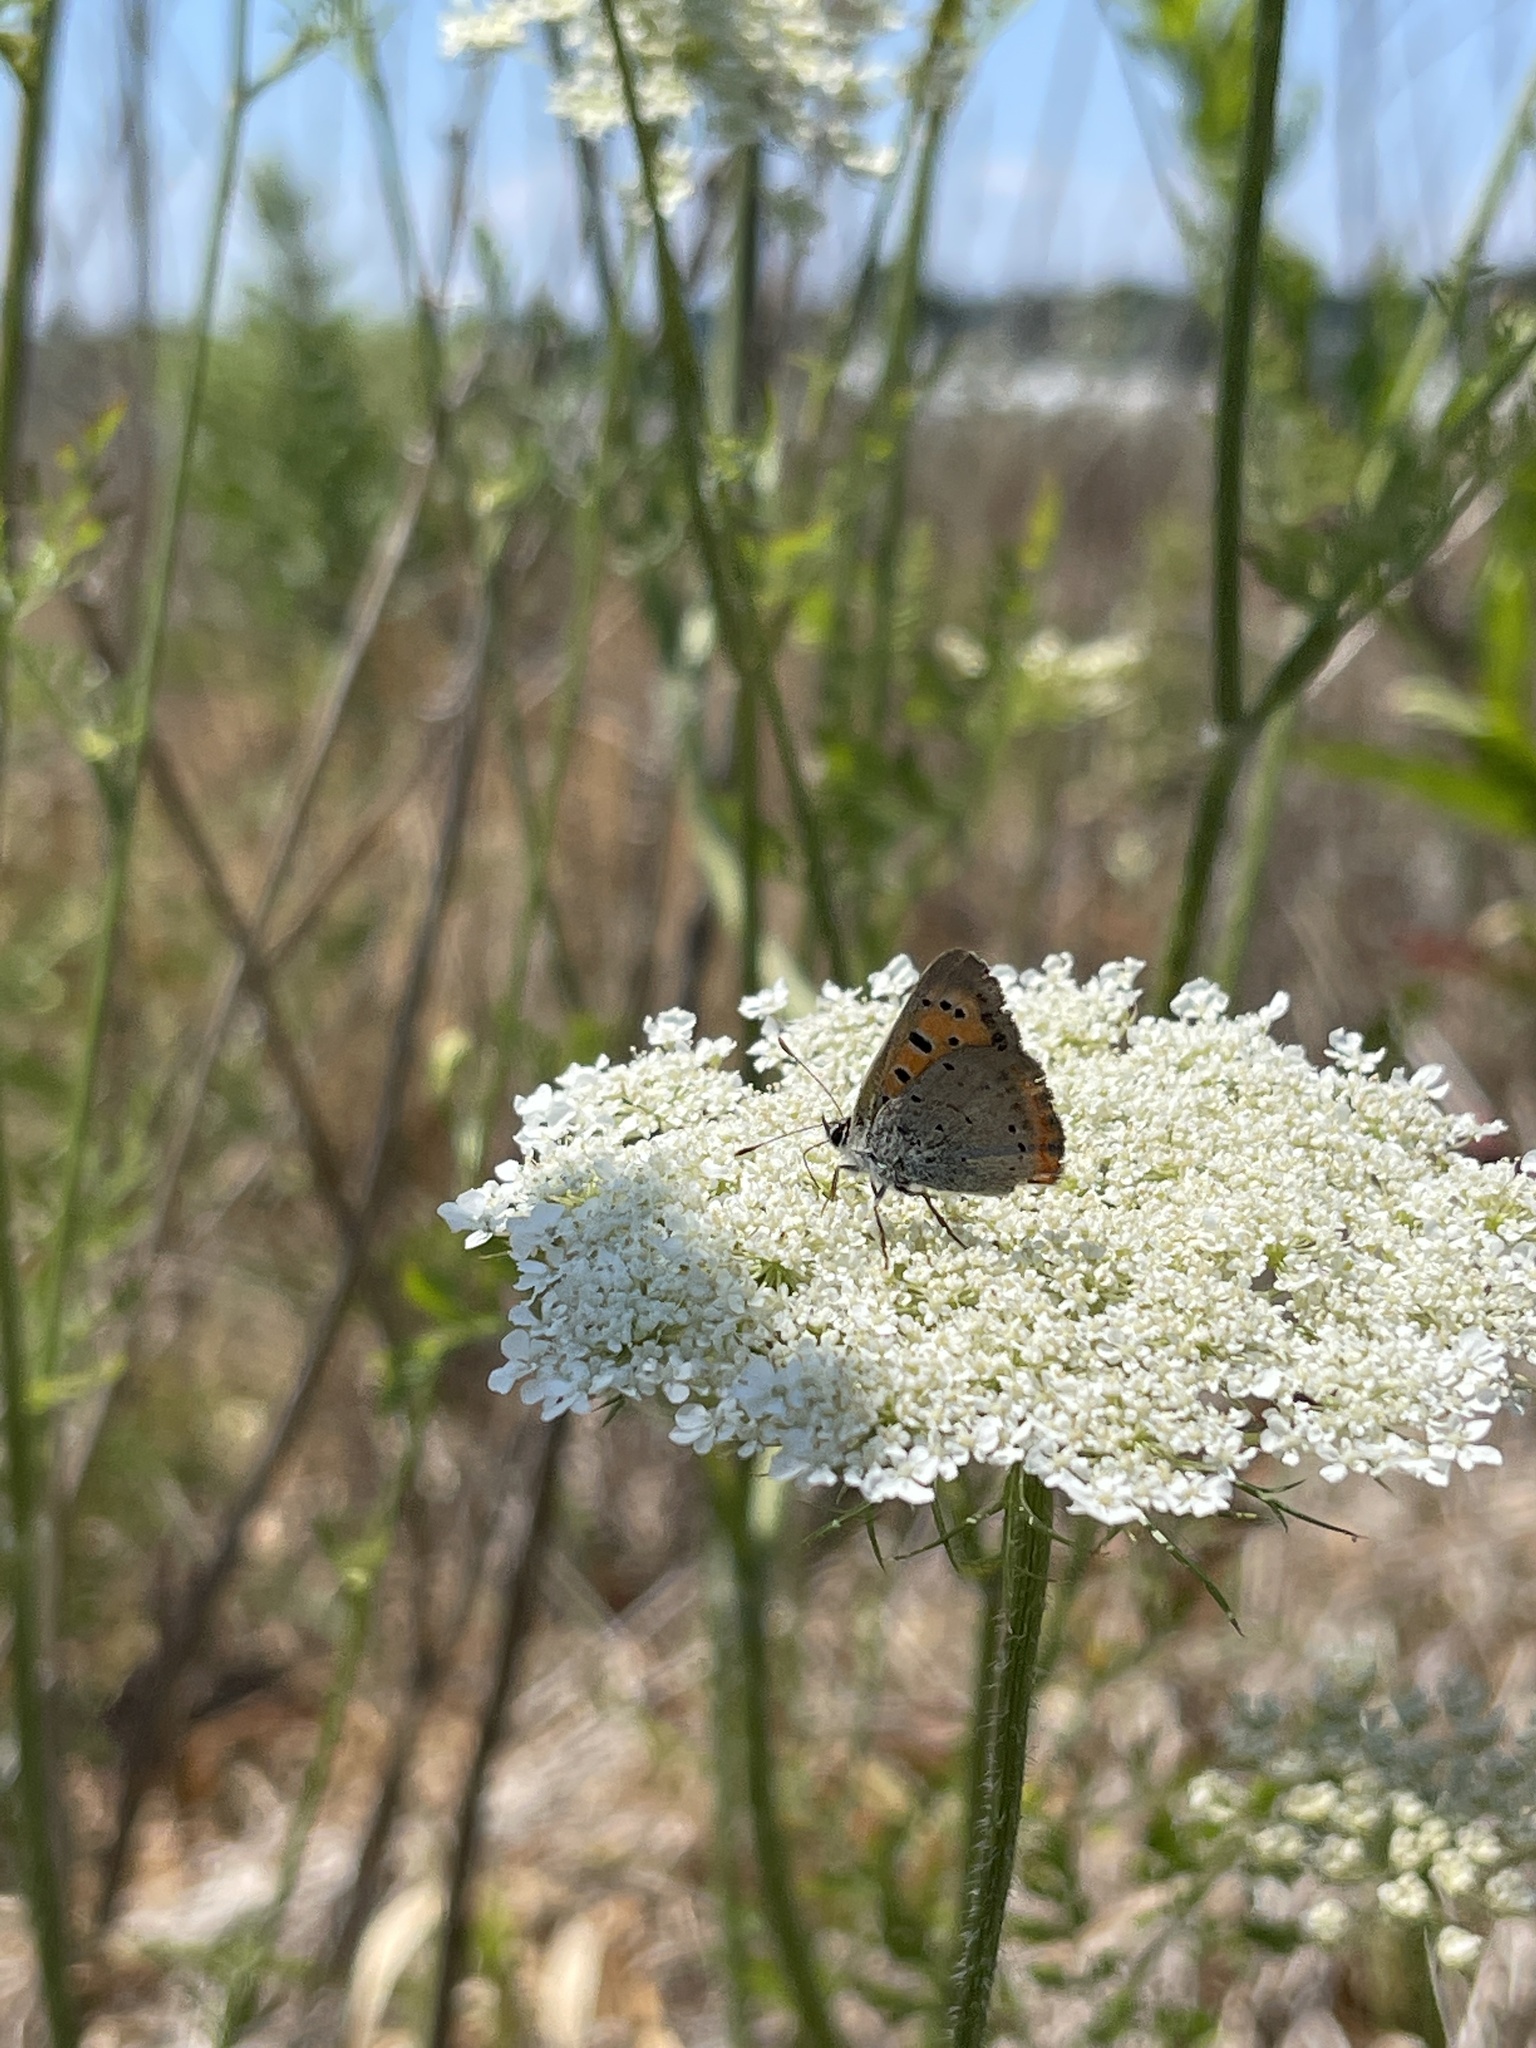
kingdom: Animalia
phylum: Arthropoda
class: Insecta
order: Lepidoptera
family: Lycaenidae
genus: Lycaena
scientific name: Lycaena hypophlaeas
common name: American copper
